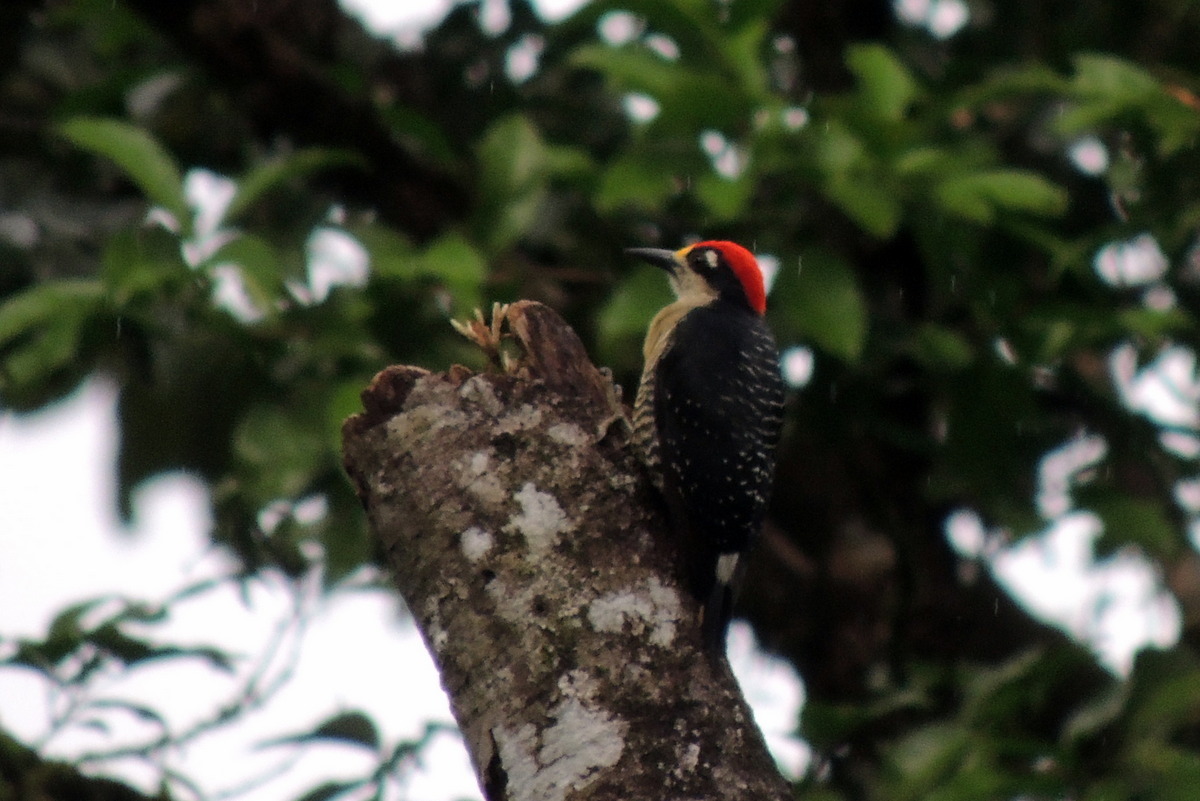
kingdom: Animalia
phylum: Chordata
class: Aves
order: Piciformes
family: Picidae
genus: Melanerpes
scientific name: Melanerpes pucherani
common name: Black-cheeked woodpecker
